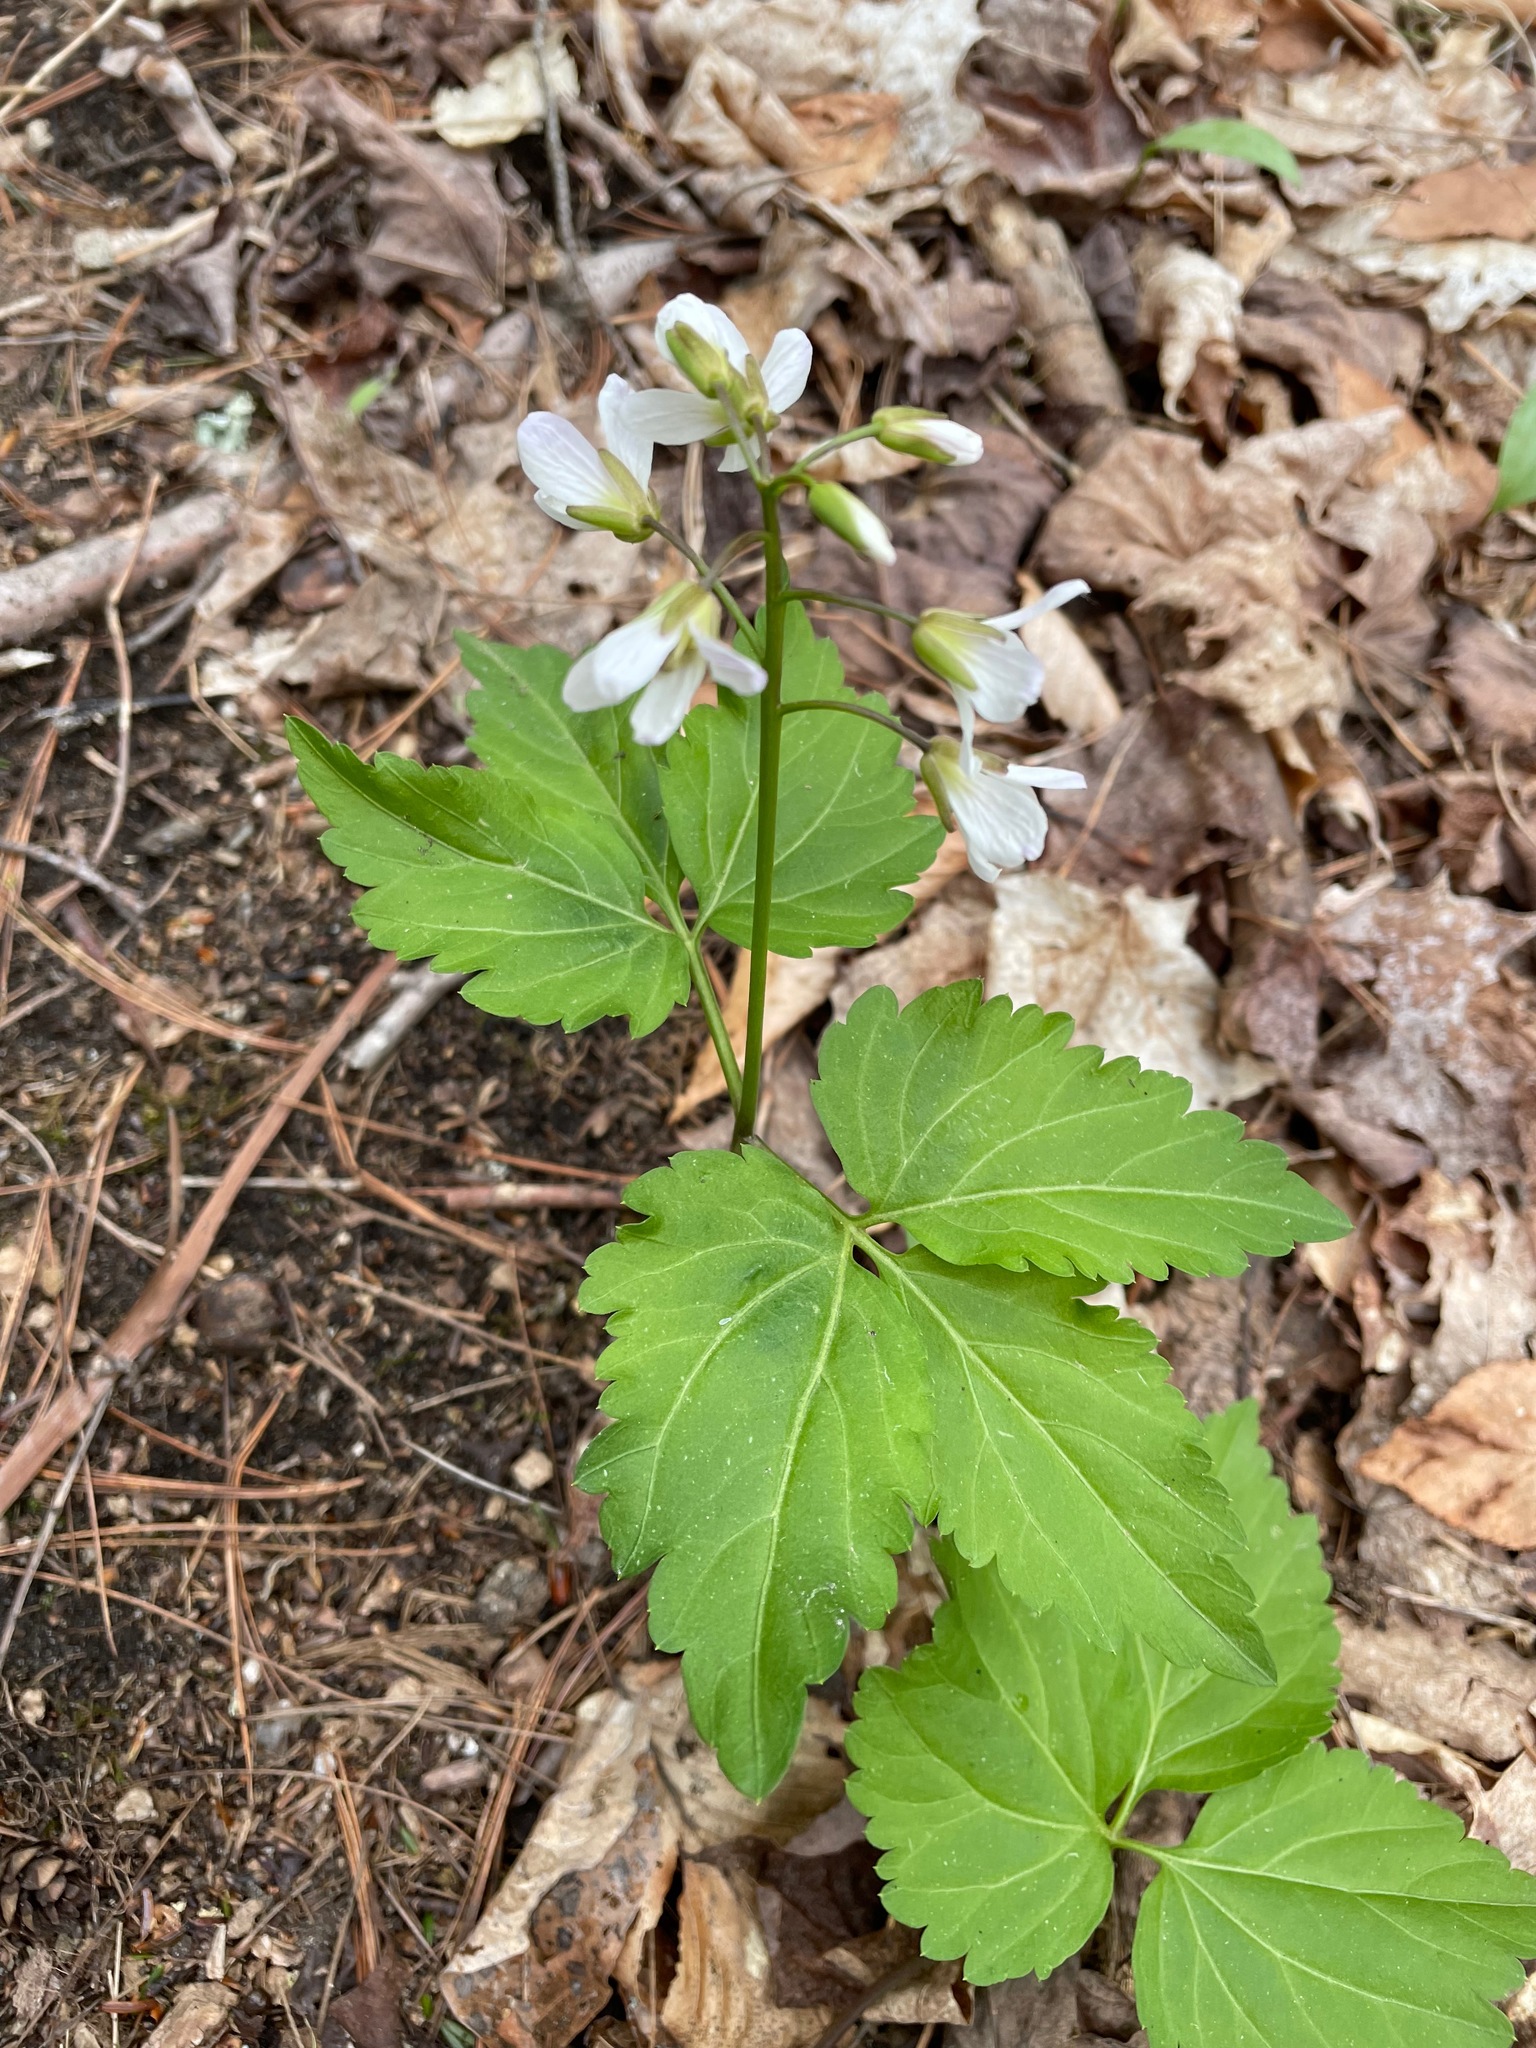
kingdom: Plantae
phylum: Tracheophyta
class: Magnoliopsida
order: Brassicales
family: Brassicaceae
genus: Cardamine
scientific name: Cardamine diphylla
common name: Broad-leaved toothwort
